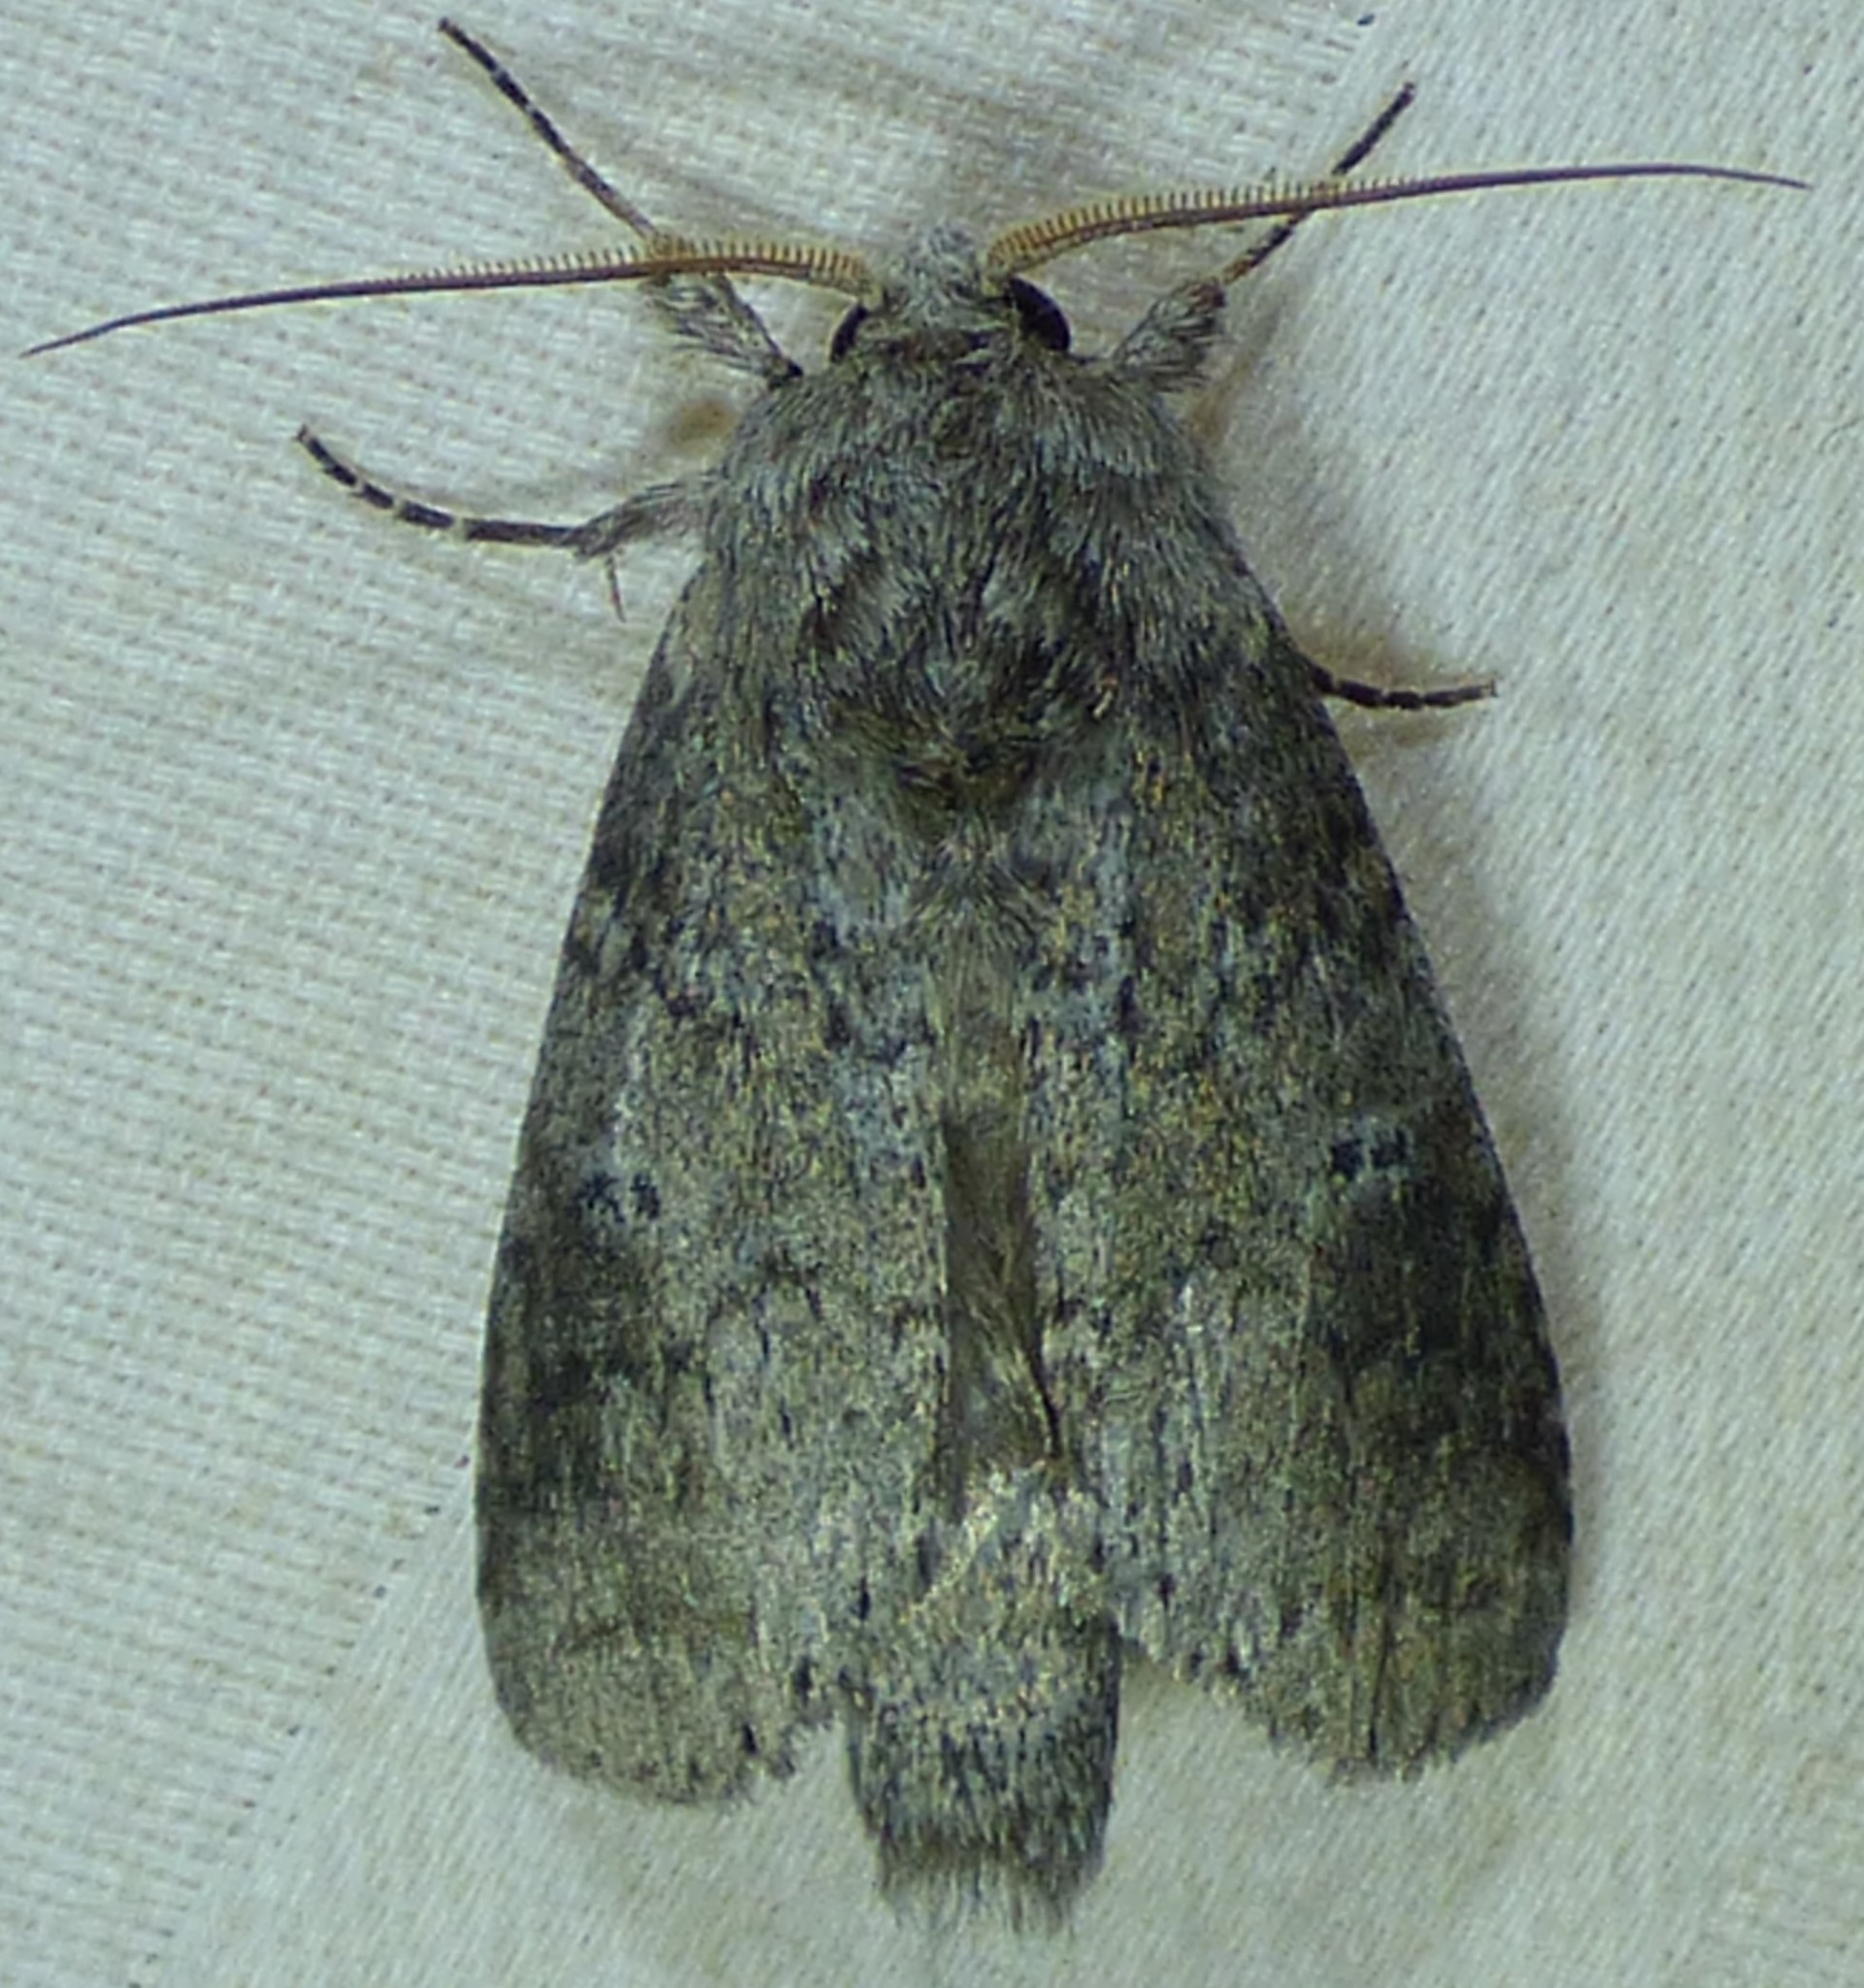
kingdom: Animalia
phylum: Arthropoda
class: Insecta
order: Lepidoptera
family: Notodontidae
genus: Lochmaeus
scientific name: Lochmaeus manteo
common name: Variable oakleaf caterpillar moth
